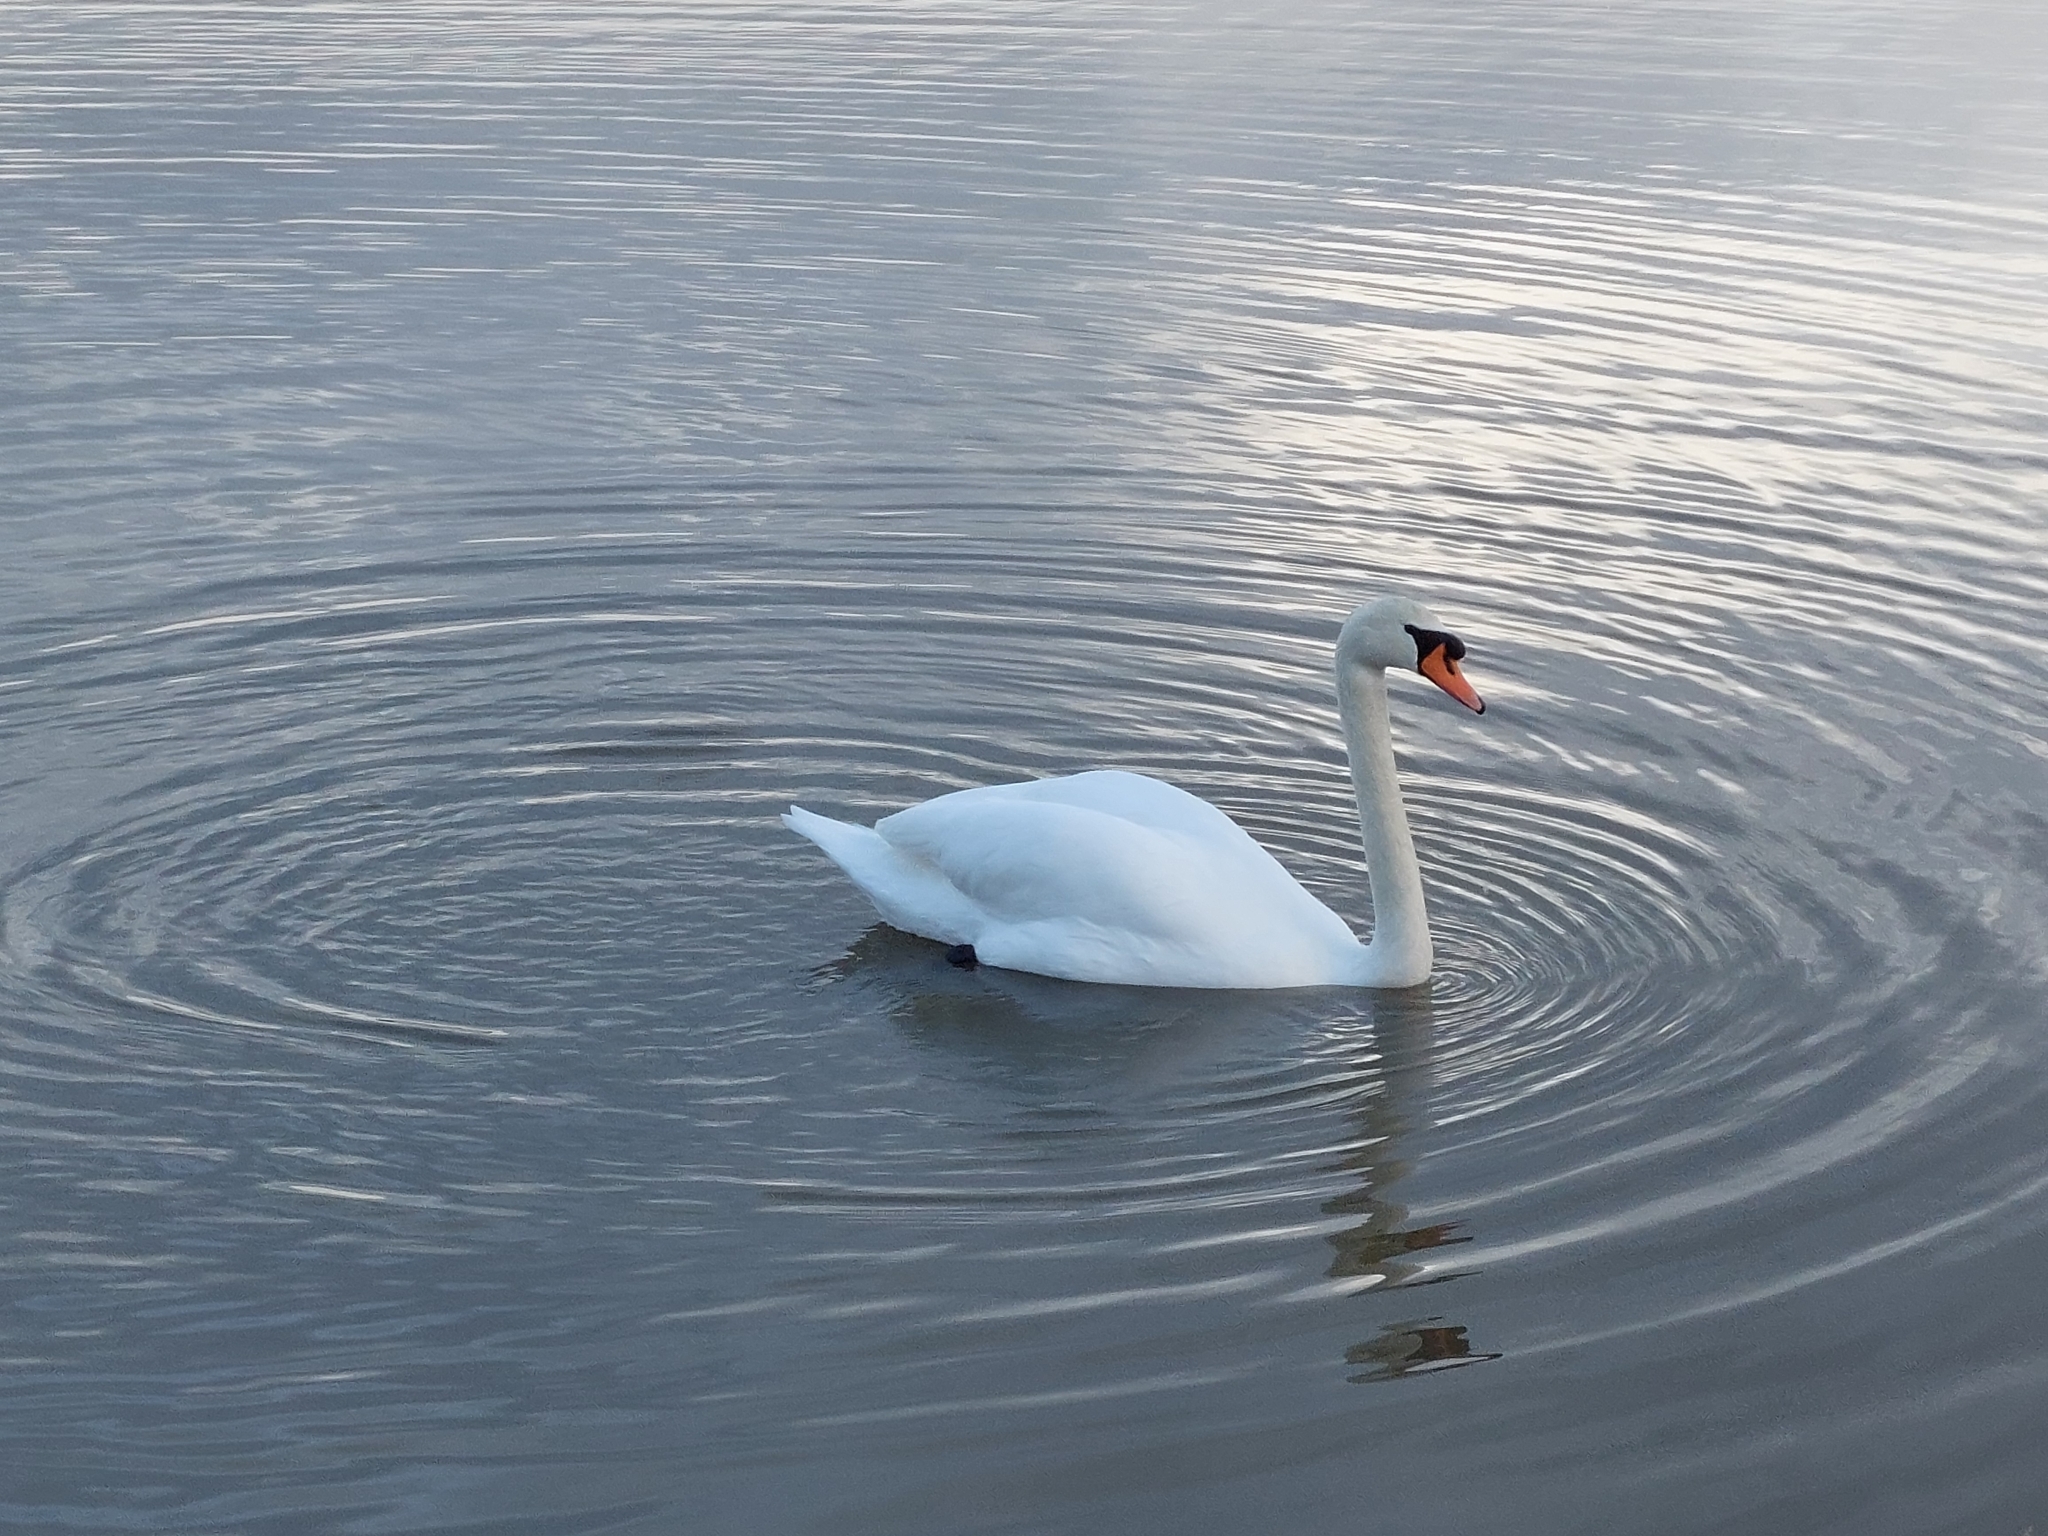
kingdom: Animalia
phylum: Chordata
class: Aves
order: Anseriformes
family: Anatidae
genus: Cygnus
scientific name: Cygnus olor
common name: Mute swan
